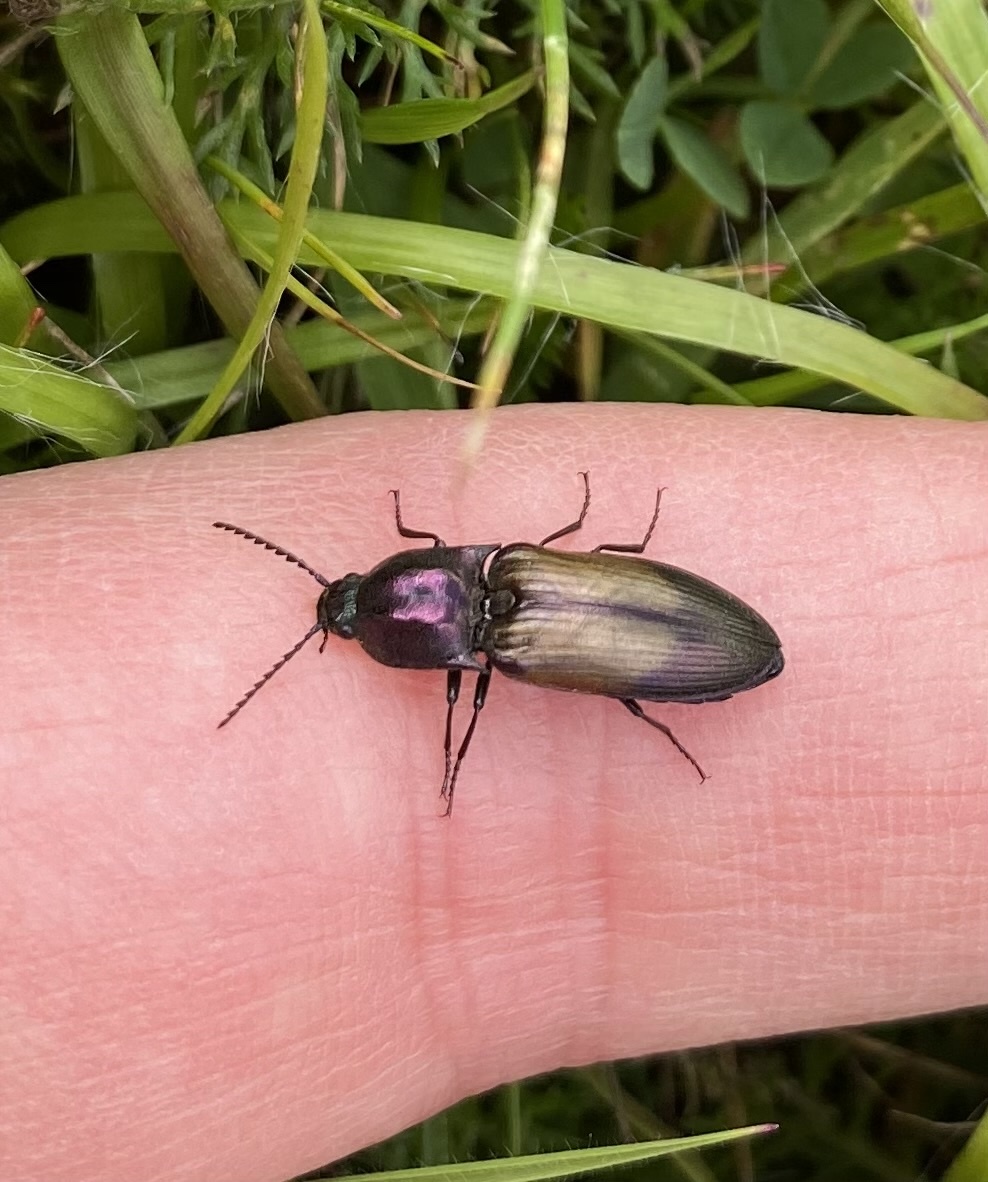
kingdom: Animalia
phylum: Arthropoda
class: Insecta
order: Coleoptera
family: Elateridae
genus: Ctenicera
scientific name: Ctenicera cuprea
